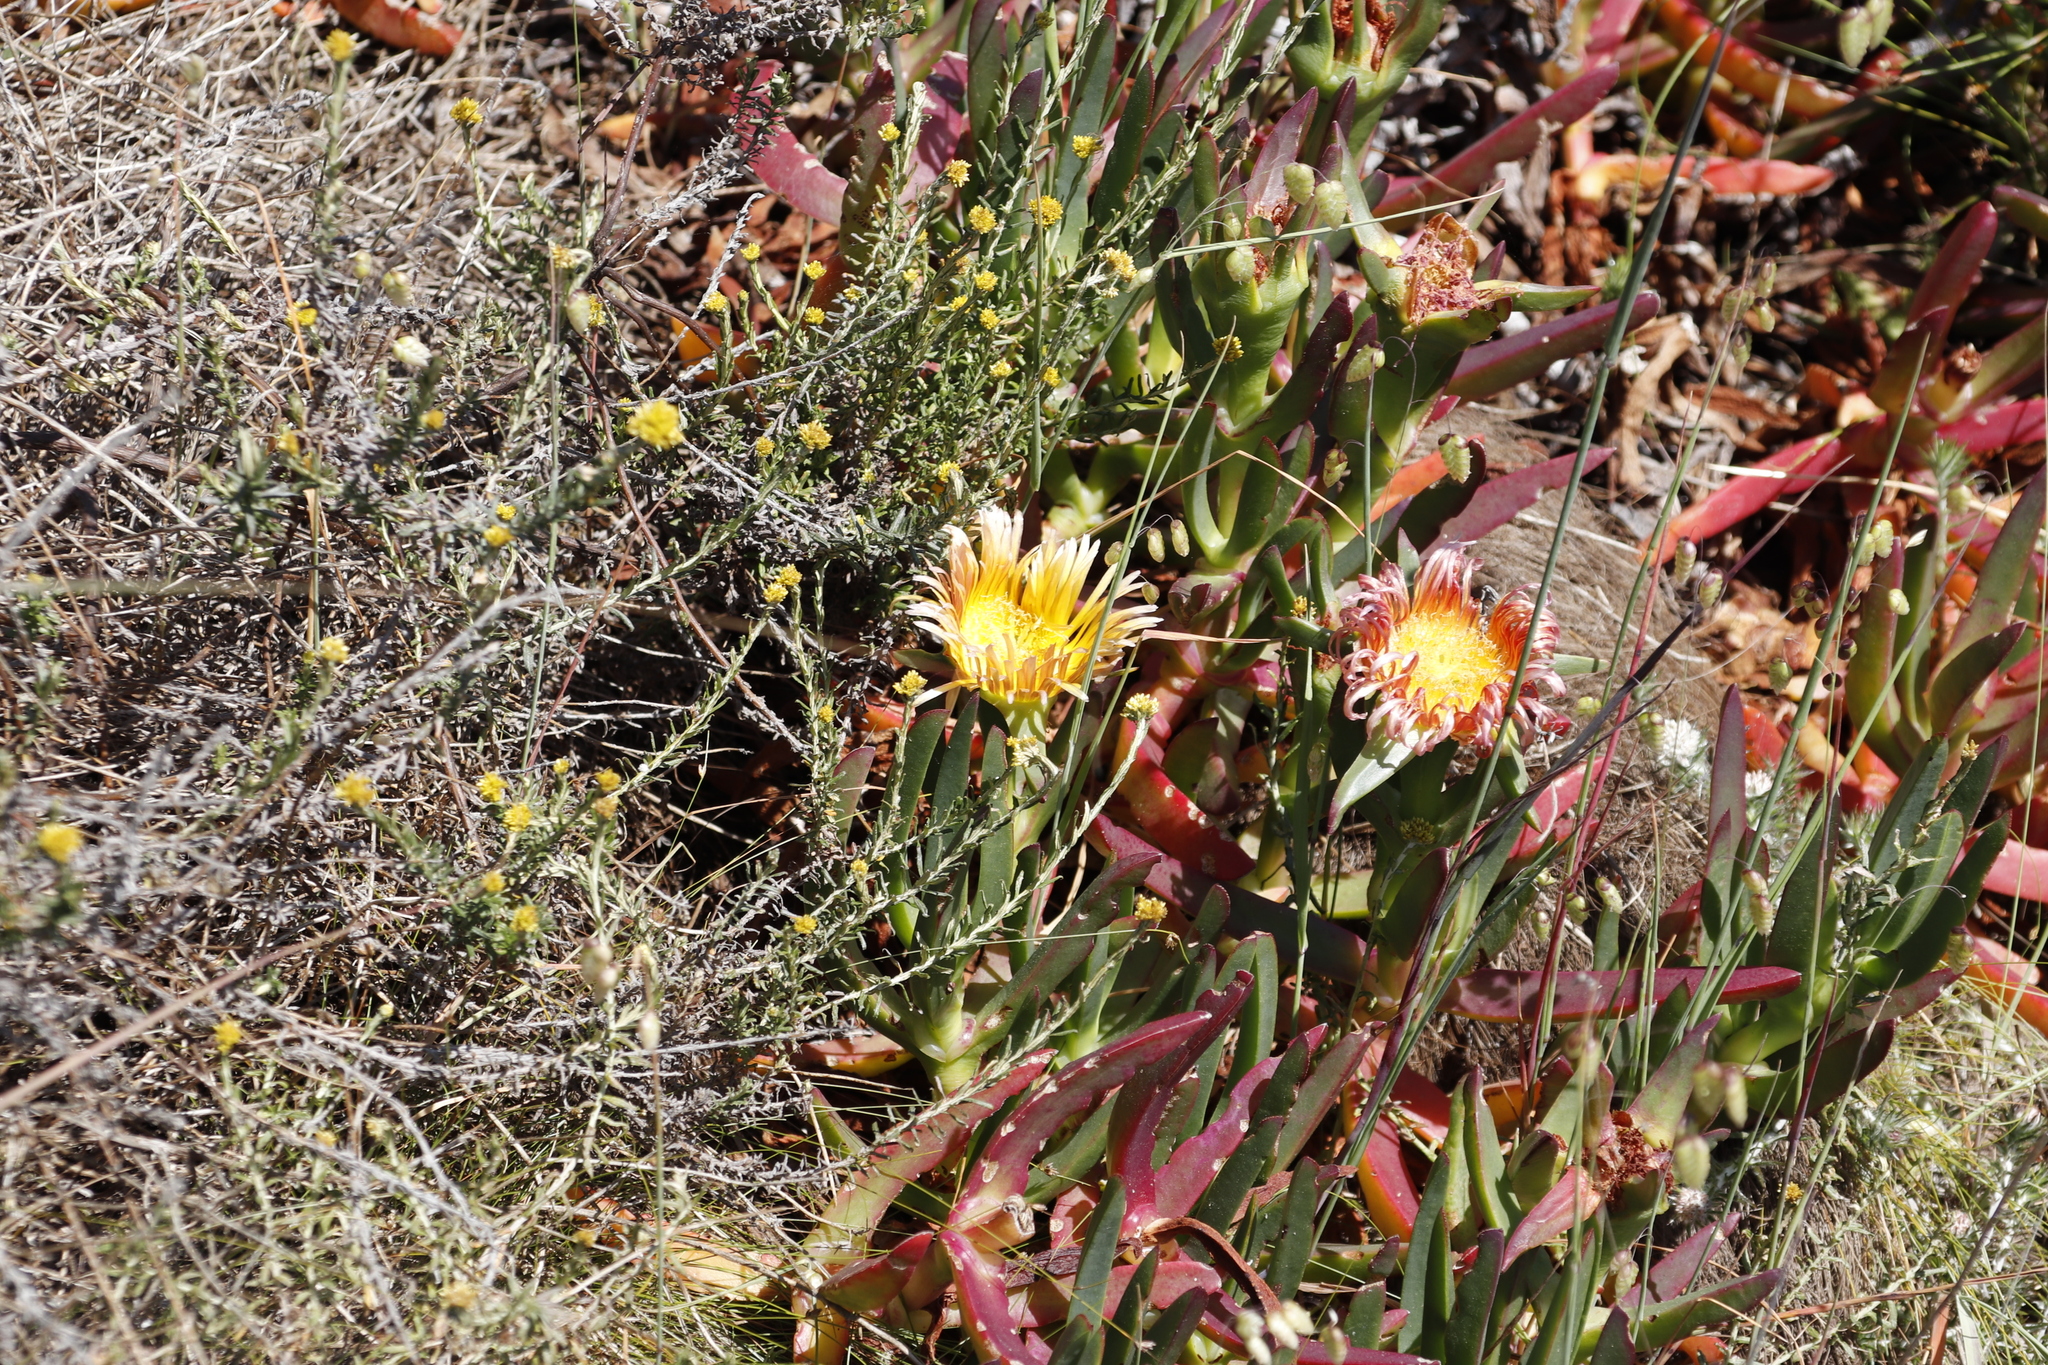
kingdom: Plantae
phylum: Tracheophyta
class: Magnoliopsida
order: Caryophyllales
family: Aizoaceae
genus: Carpobrotus
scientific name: Carpobrotus edulis
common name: Hottentot-fig
